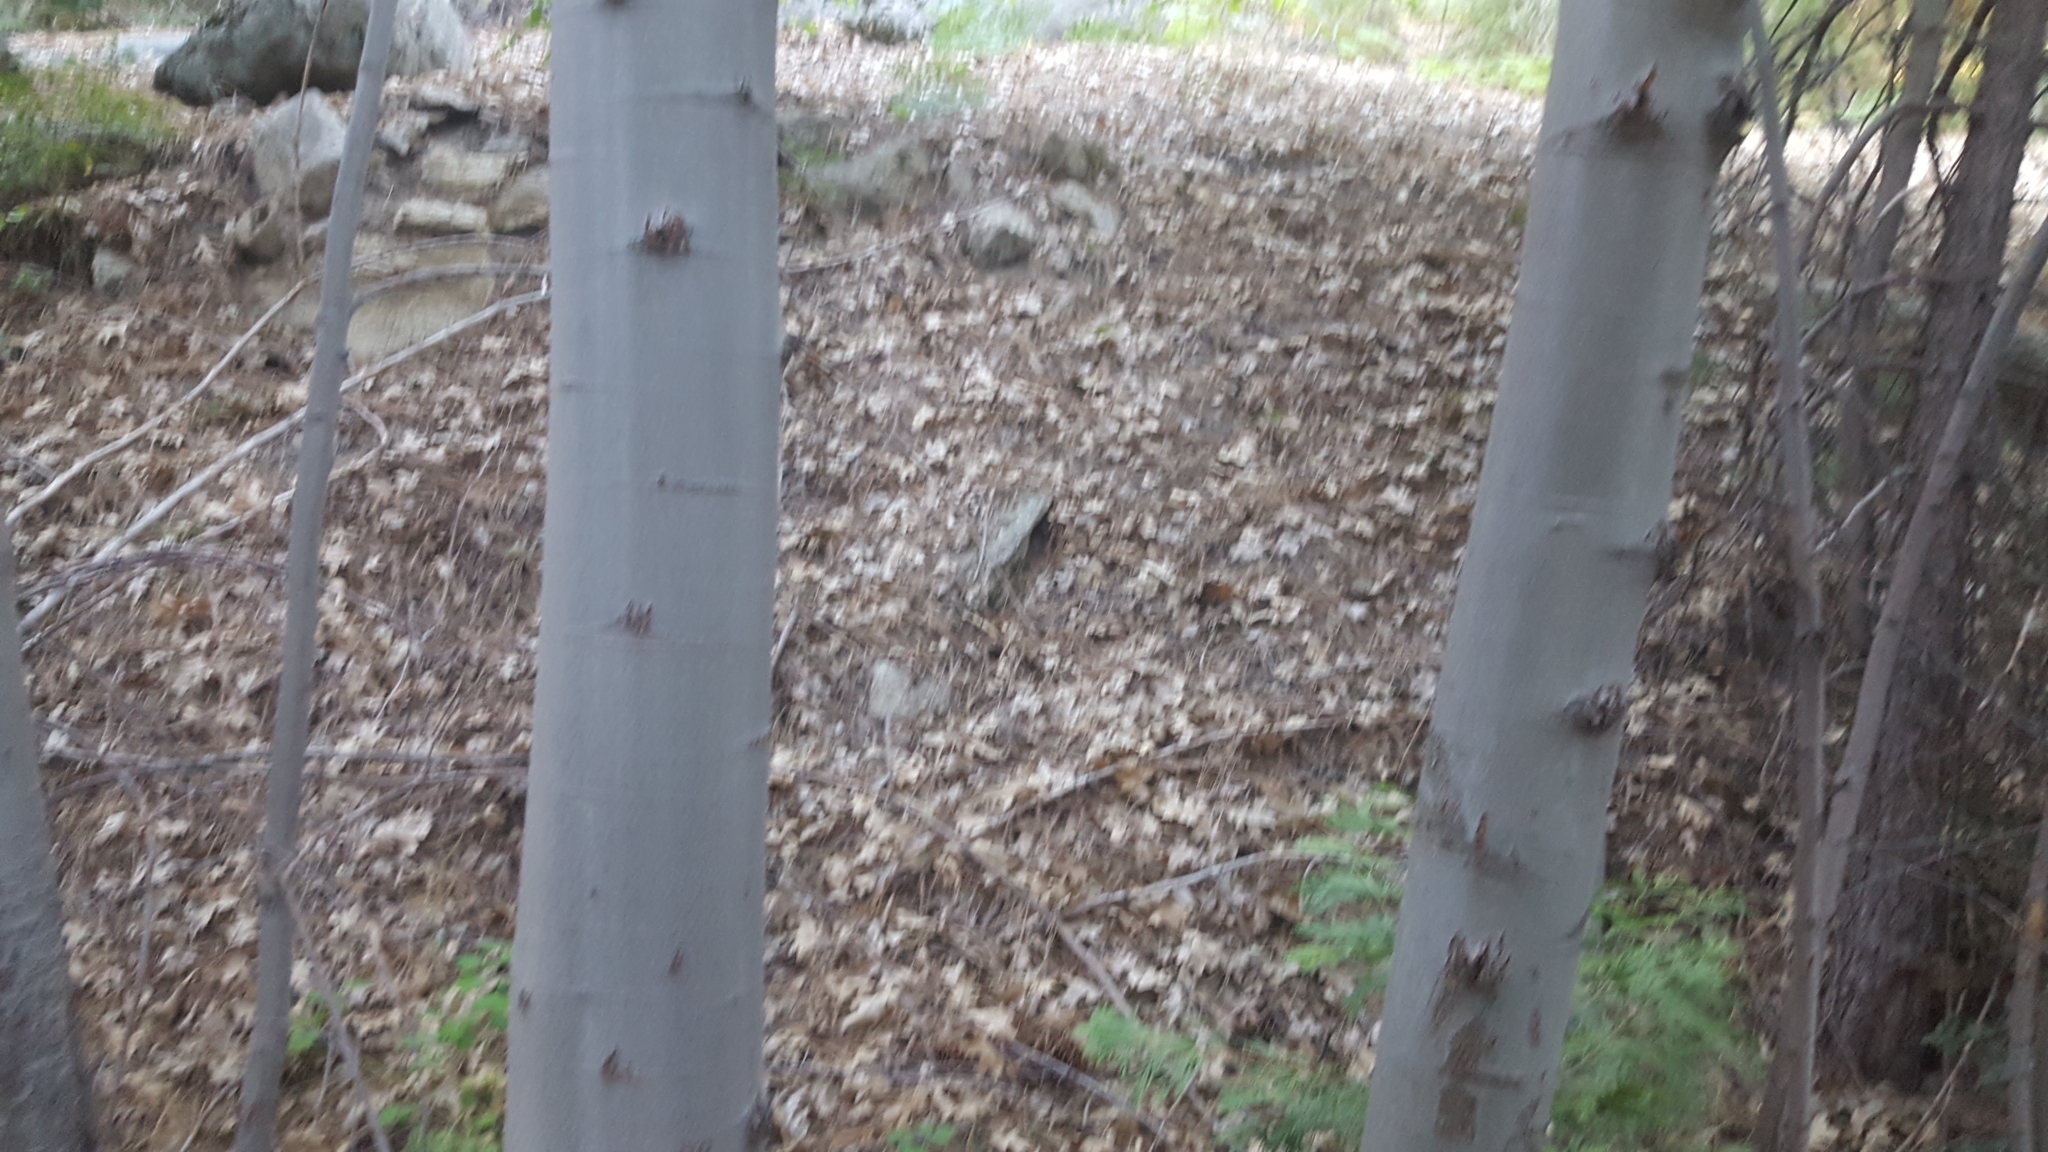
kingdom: Plantae
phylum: Tracheophyta
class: Magnoliopsida
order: Fagales
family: Betulaceae
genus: Alnus
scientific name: Alnus rhombifolia
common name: California alder
